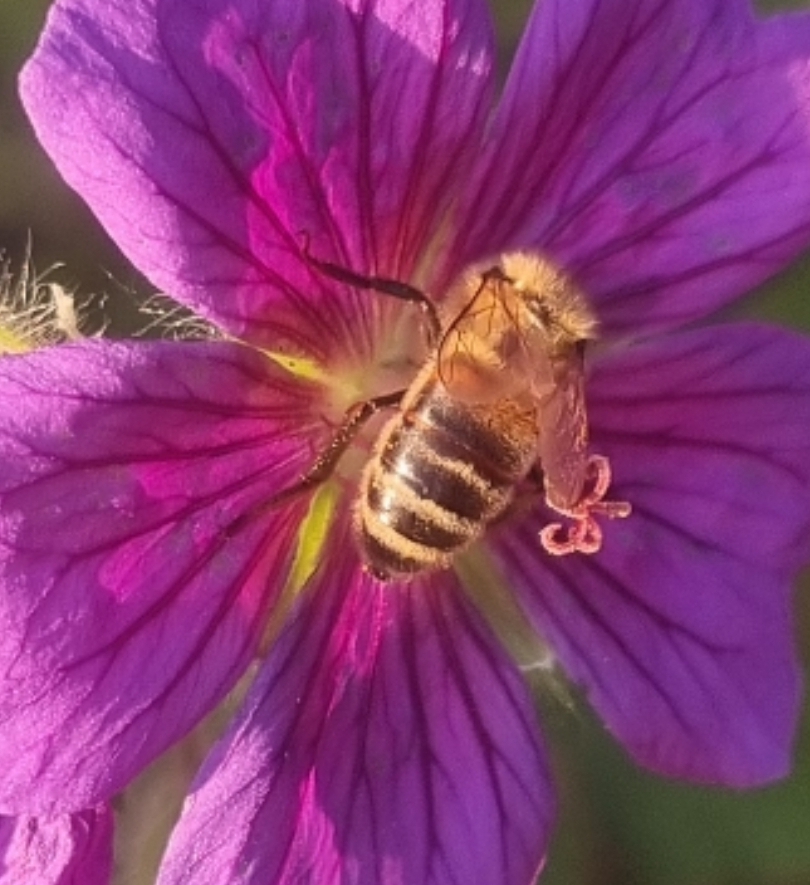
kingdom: Animalia
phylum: Arthropoda
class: Insecta
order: Hymenoptera
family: Apidae
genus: Apis
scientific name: Apis mellifera
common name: Honey bee
